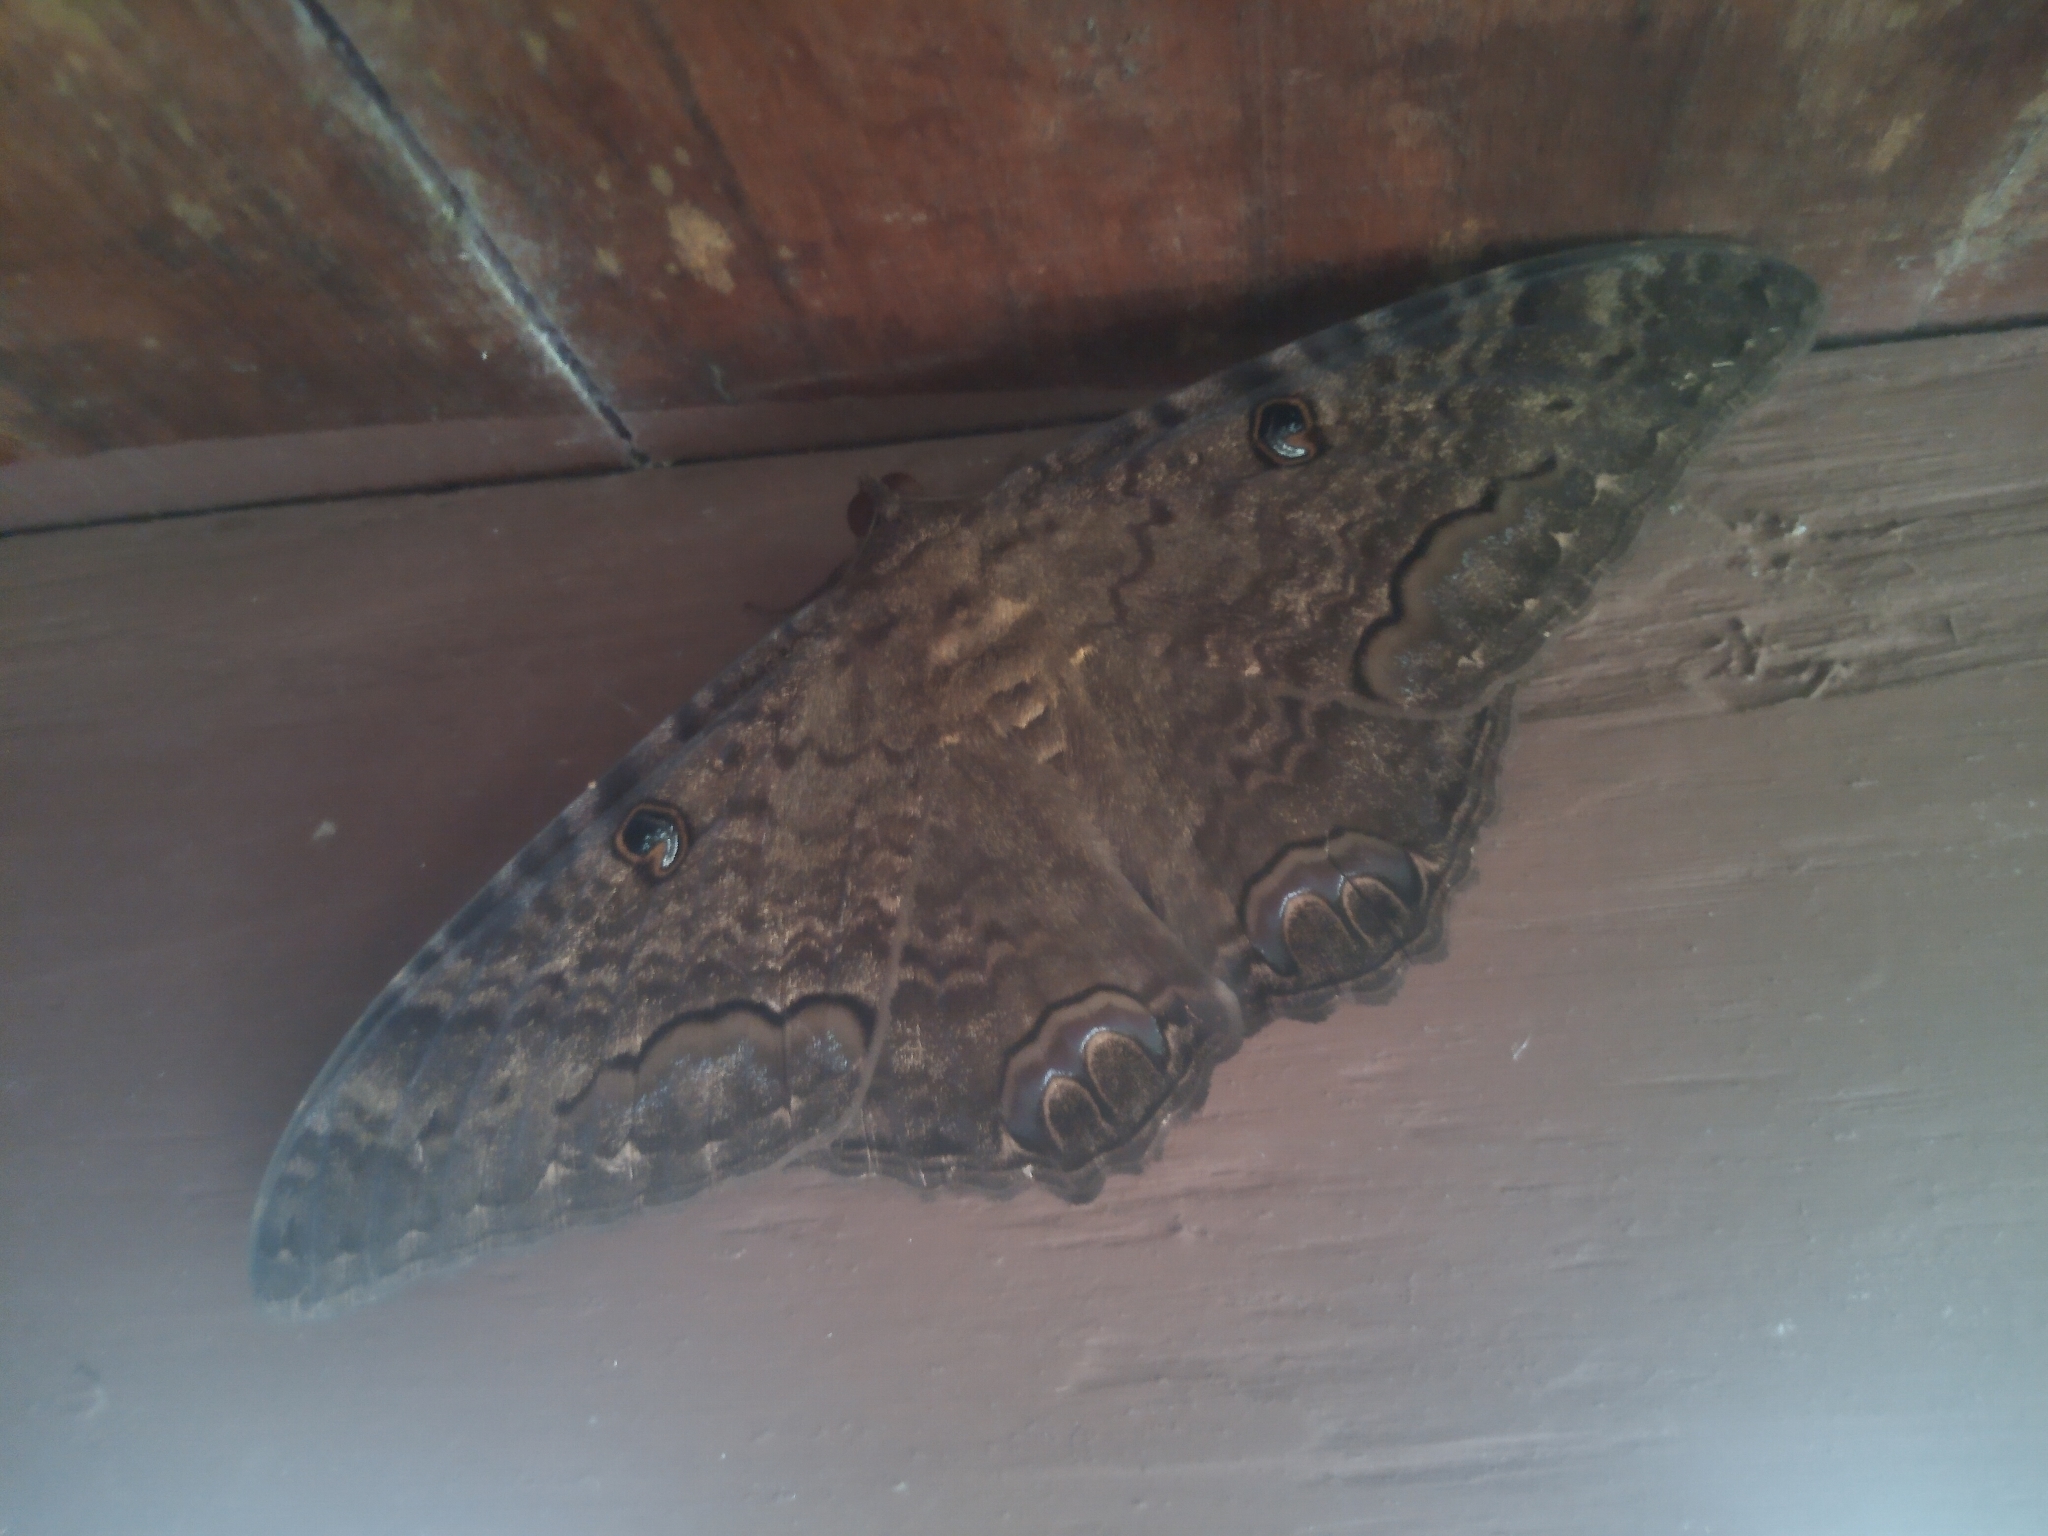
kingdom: Animalia
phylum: Arthropoda
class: Insecta
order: Lepidoptera
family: Erebidae
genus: Ascalapha
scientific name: Ascalapha odorata
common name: Black witch
